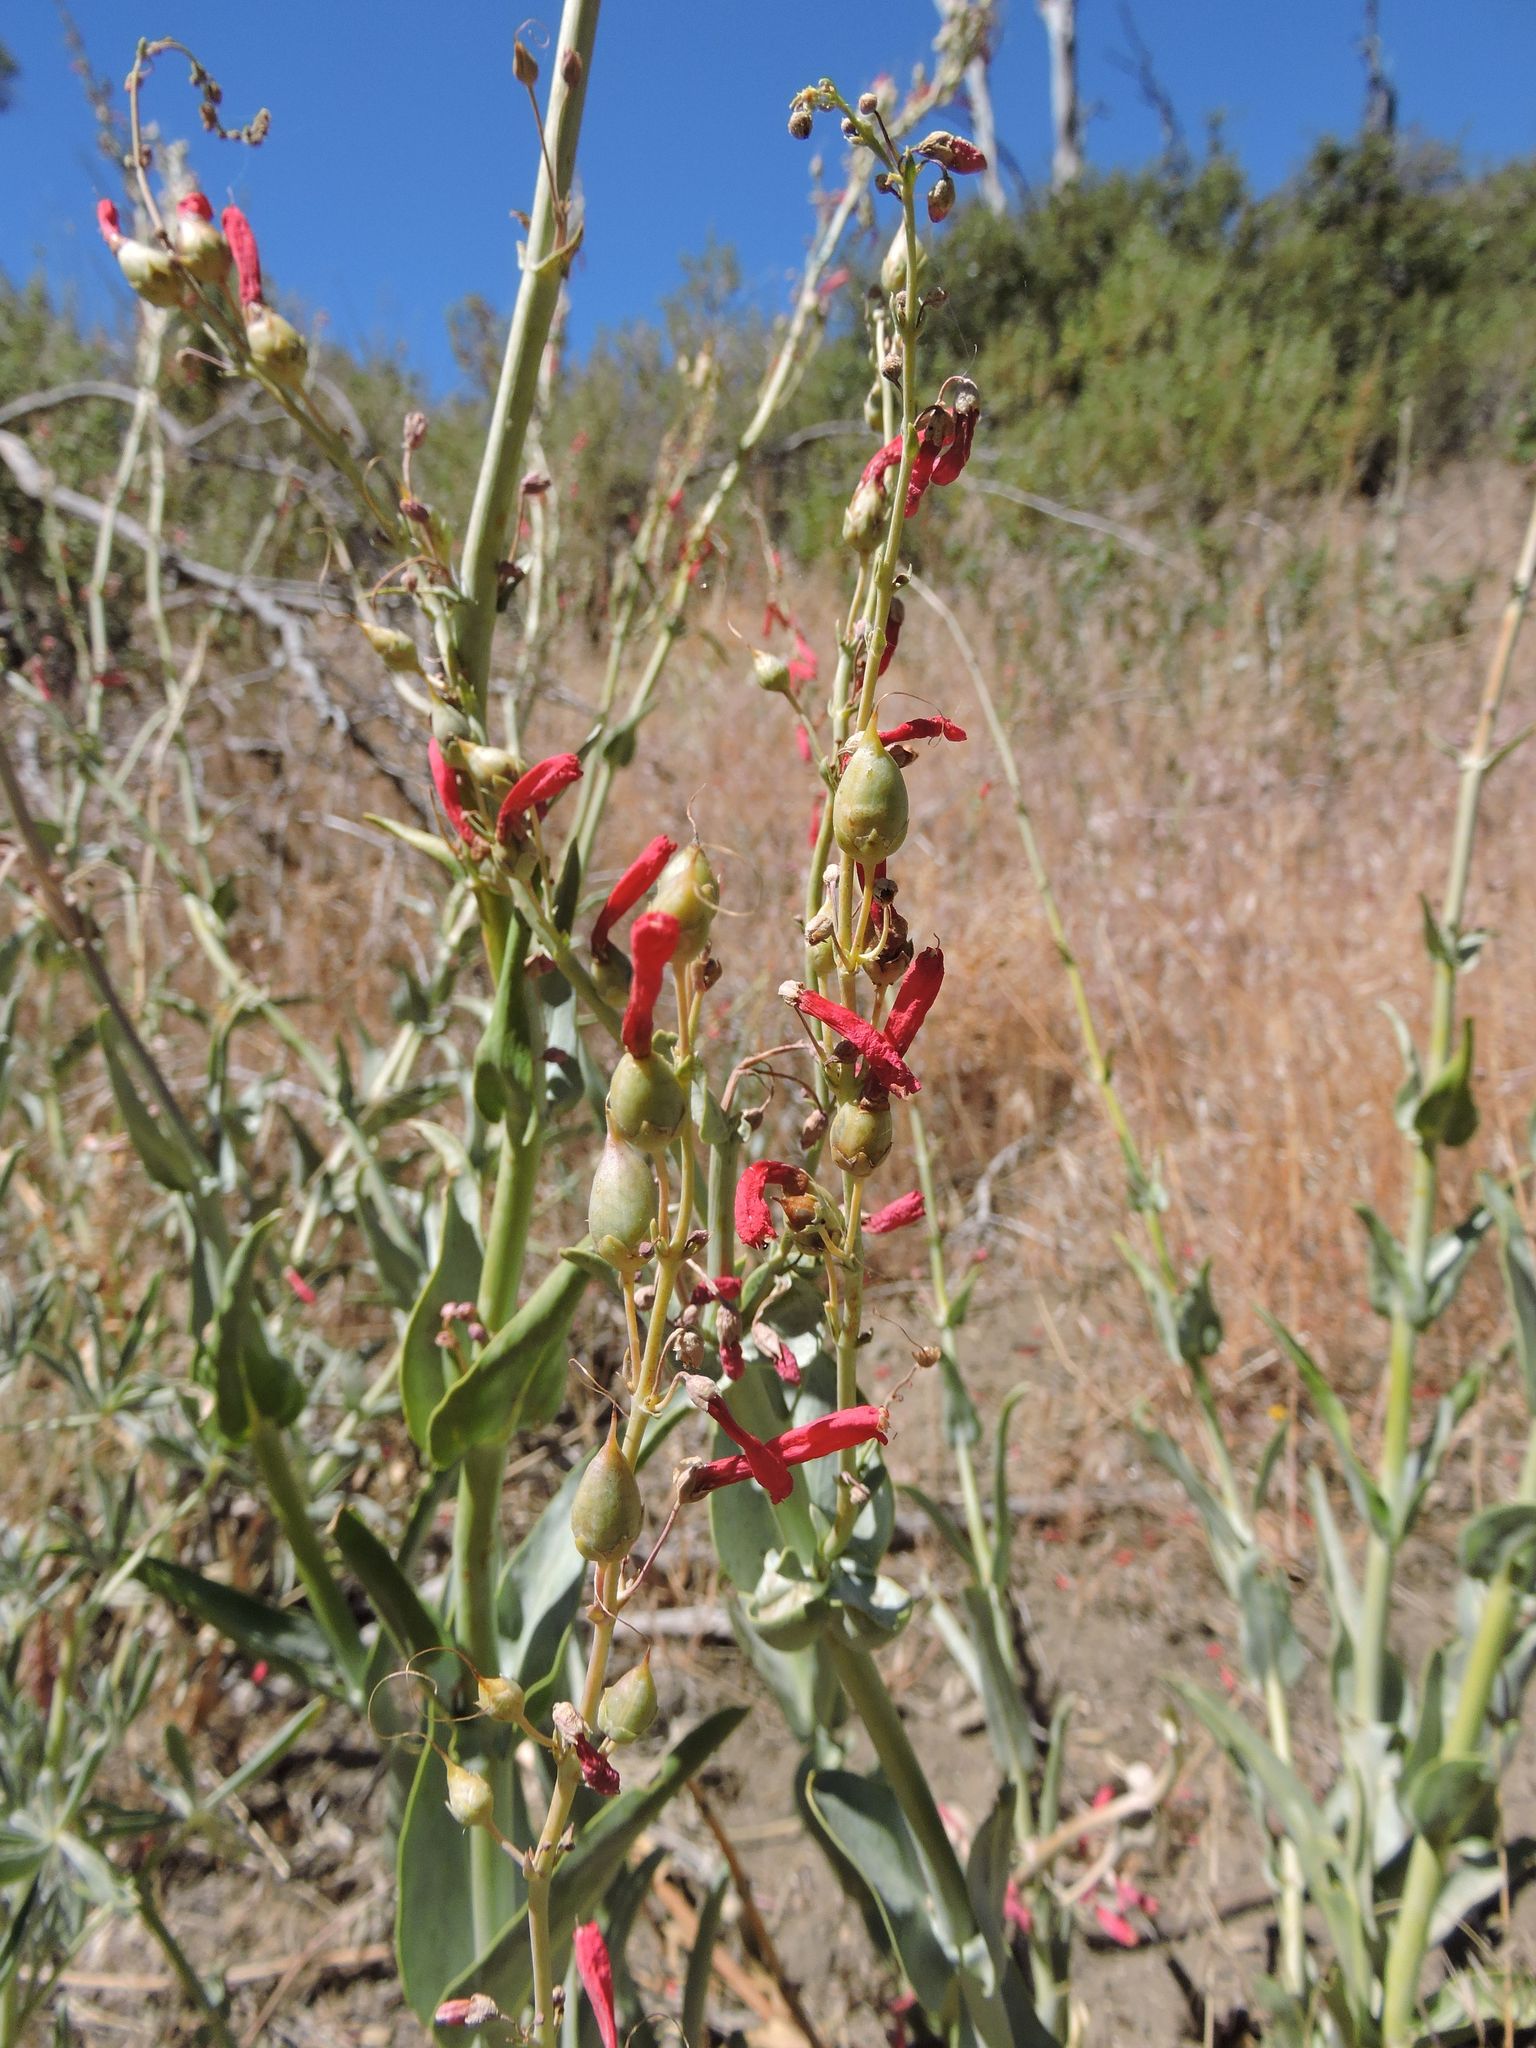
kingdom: Plantae
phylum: Tracheophyta
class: Magnoliopsida
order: Lamiales
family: Plantaginaceae
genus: Penstemon
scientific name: Penstemon centranthifolius
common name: Scarlet bugler
